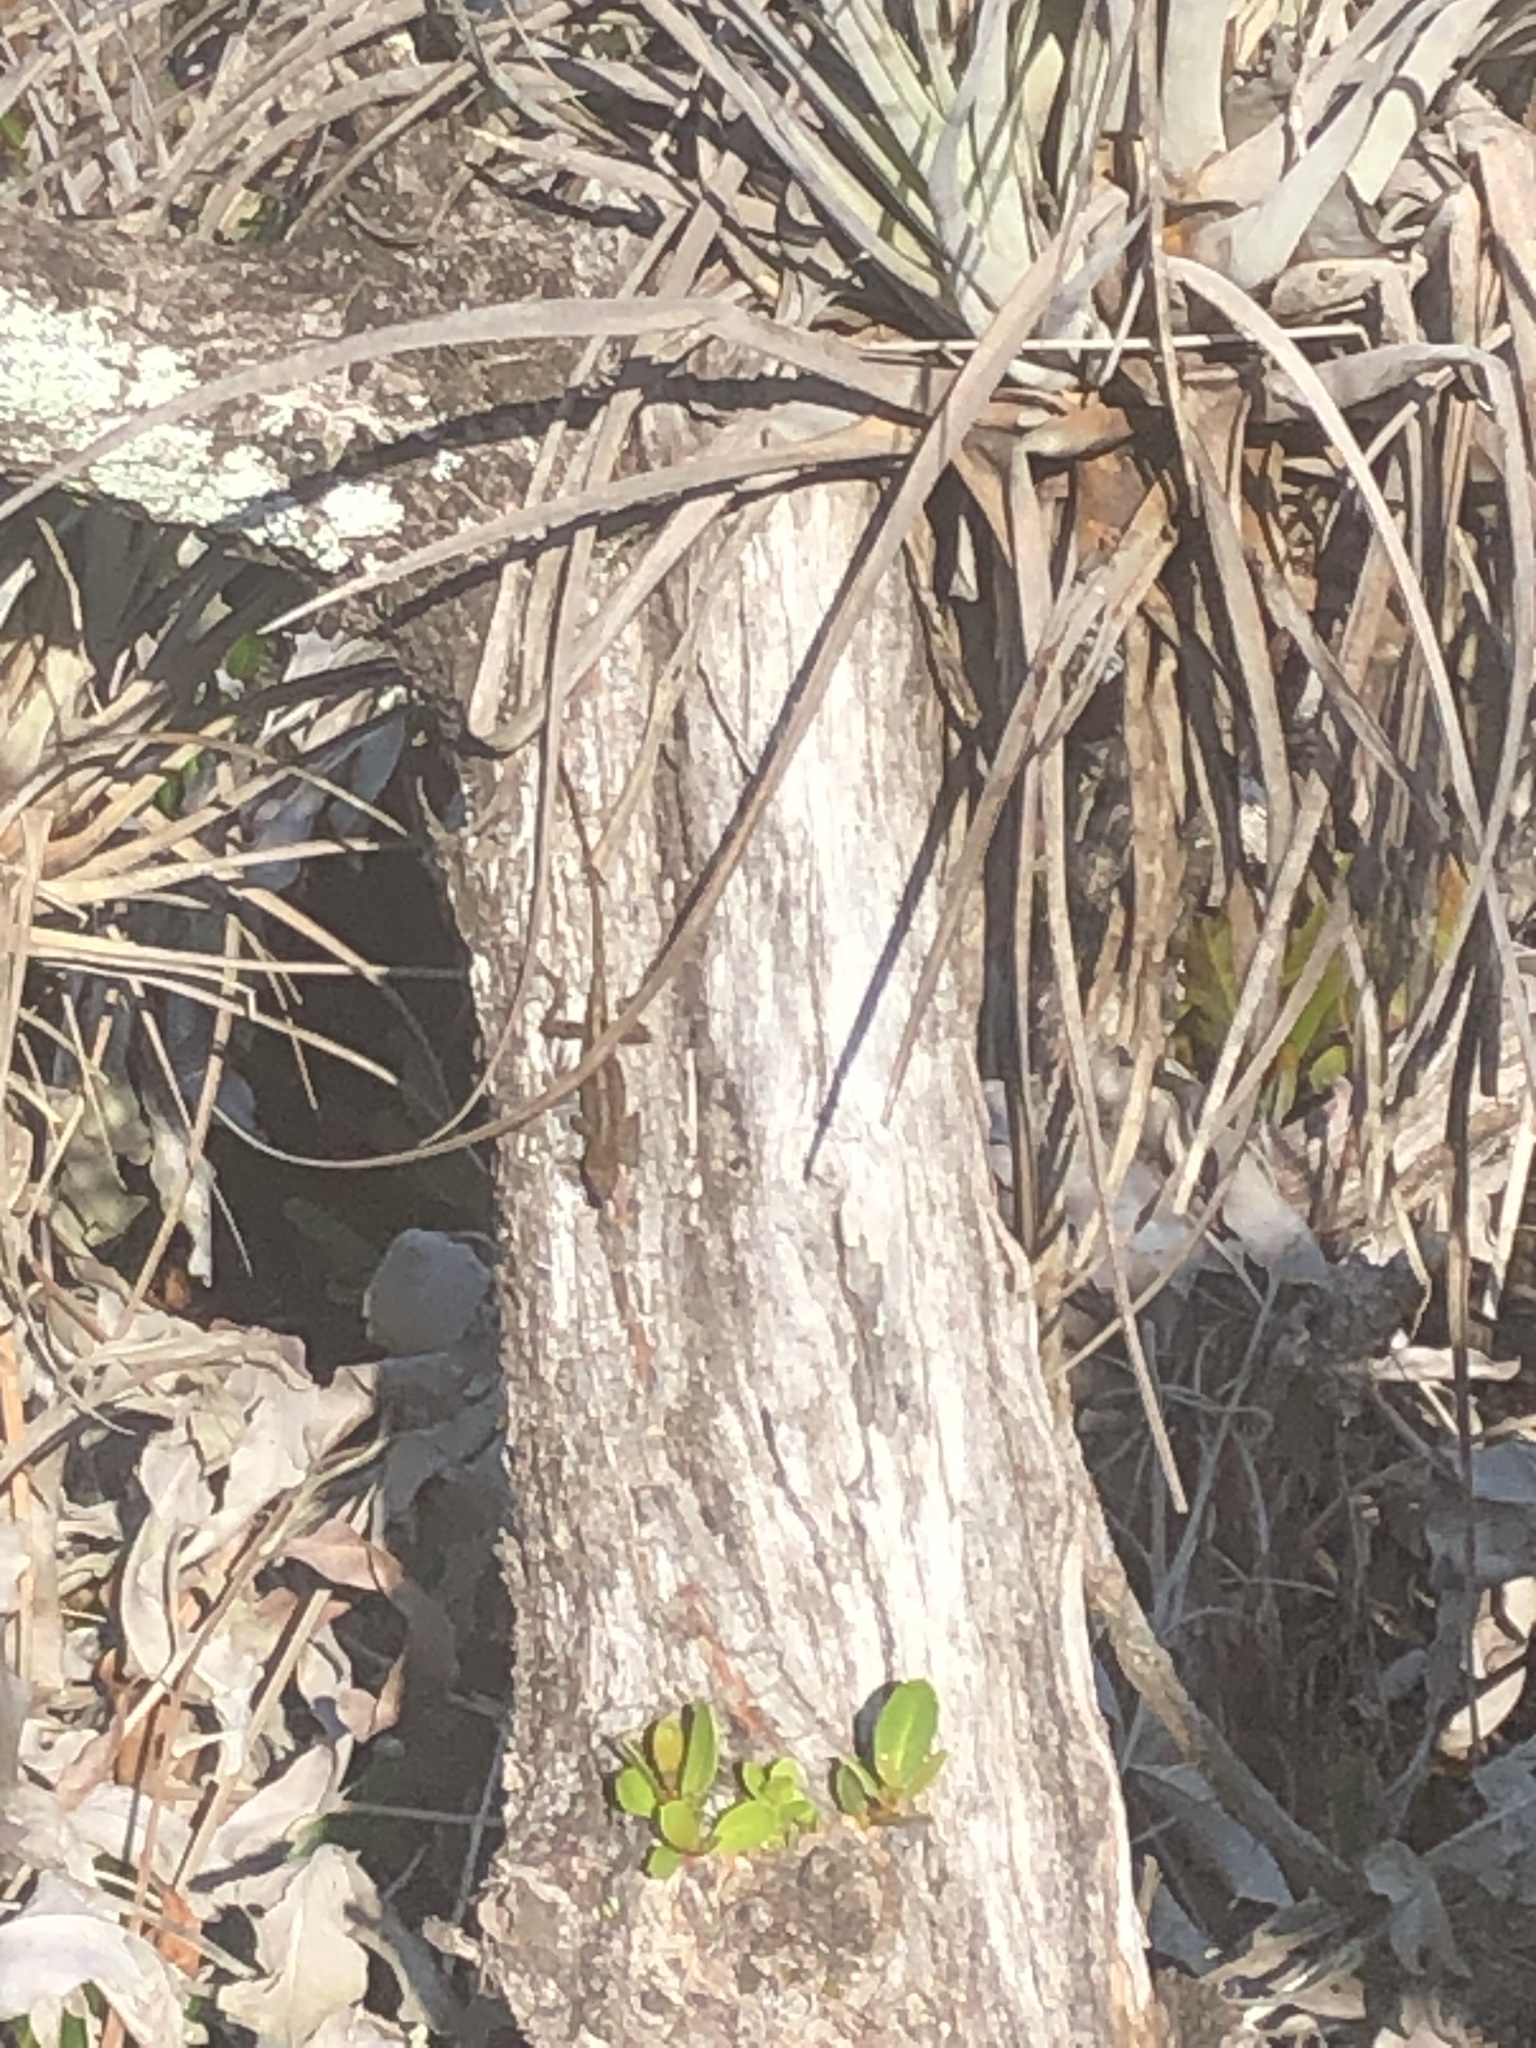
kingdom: Animalia
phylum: Chordata
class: Squamata
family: Dactyloidae
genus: Anolis
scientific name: Anolis sagrei
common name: Brown anole
